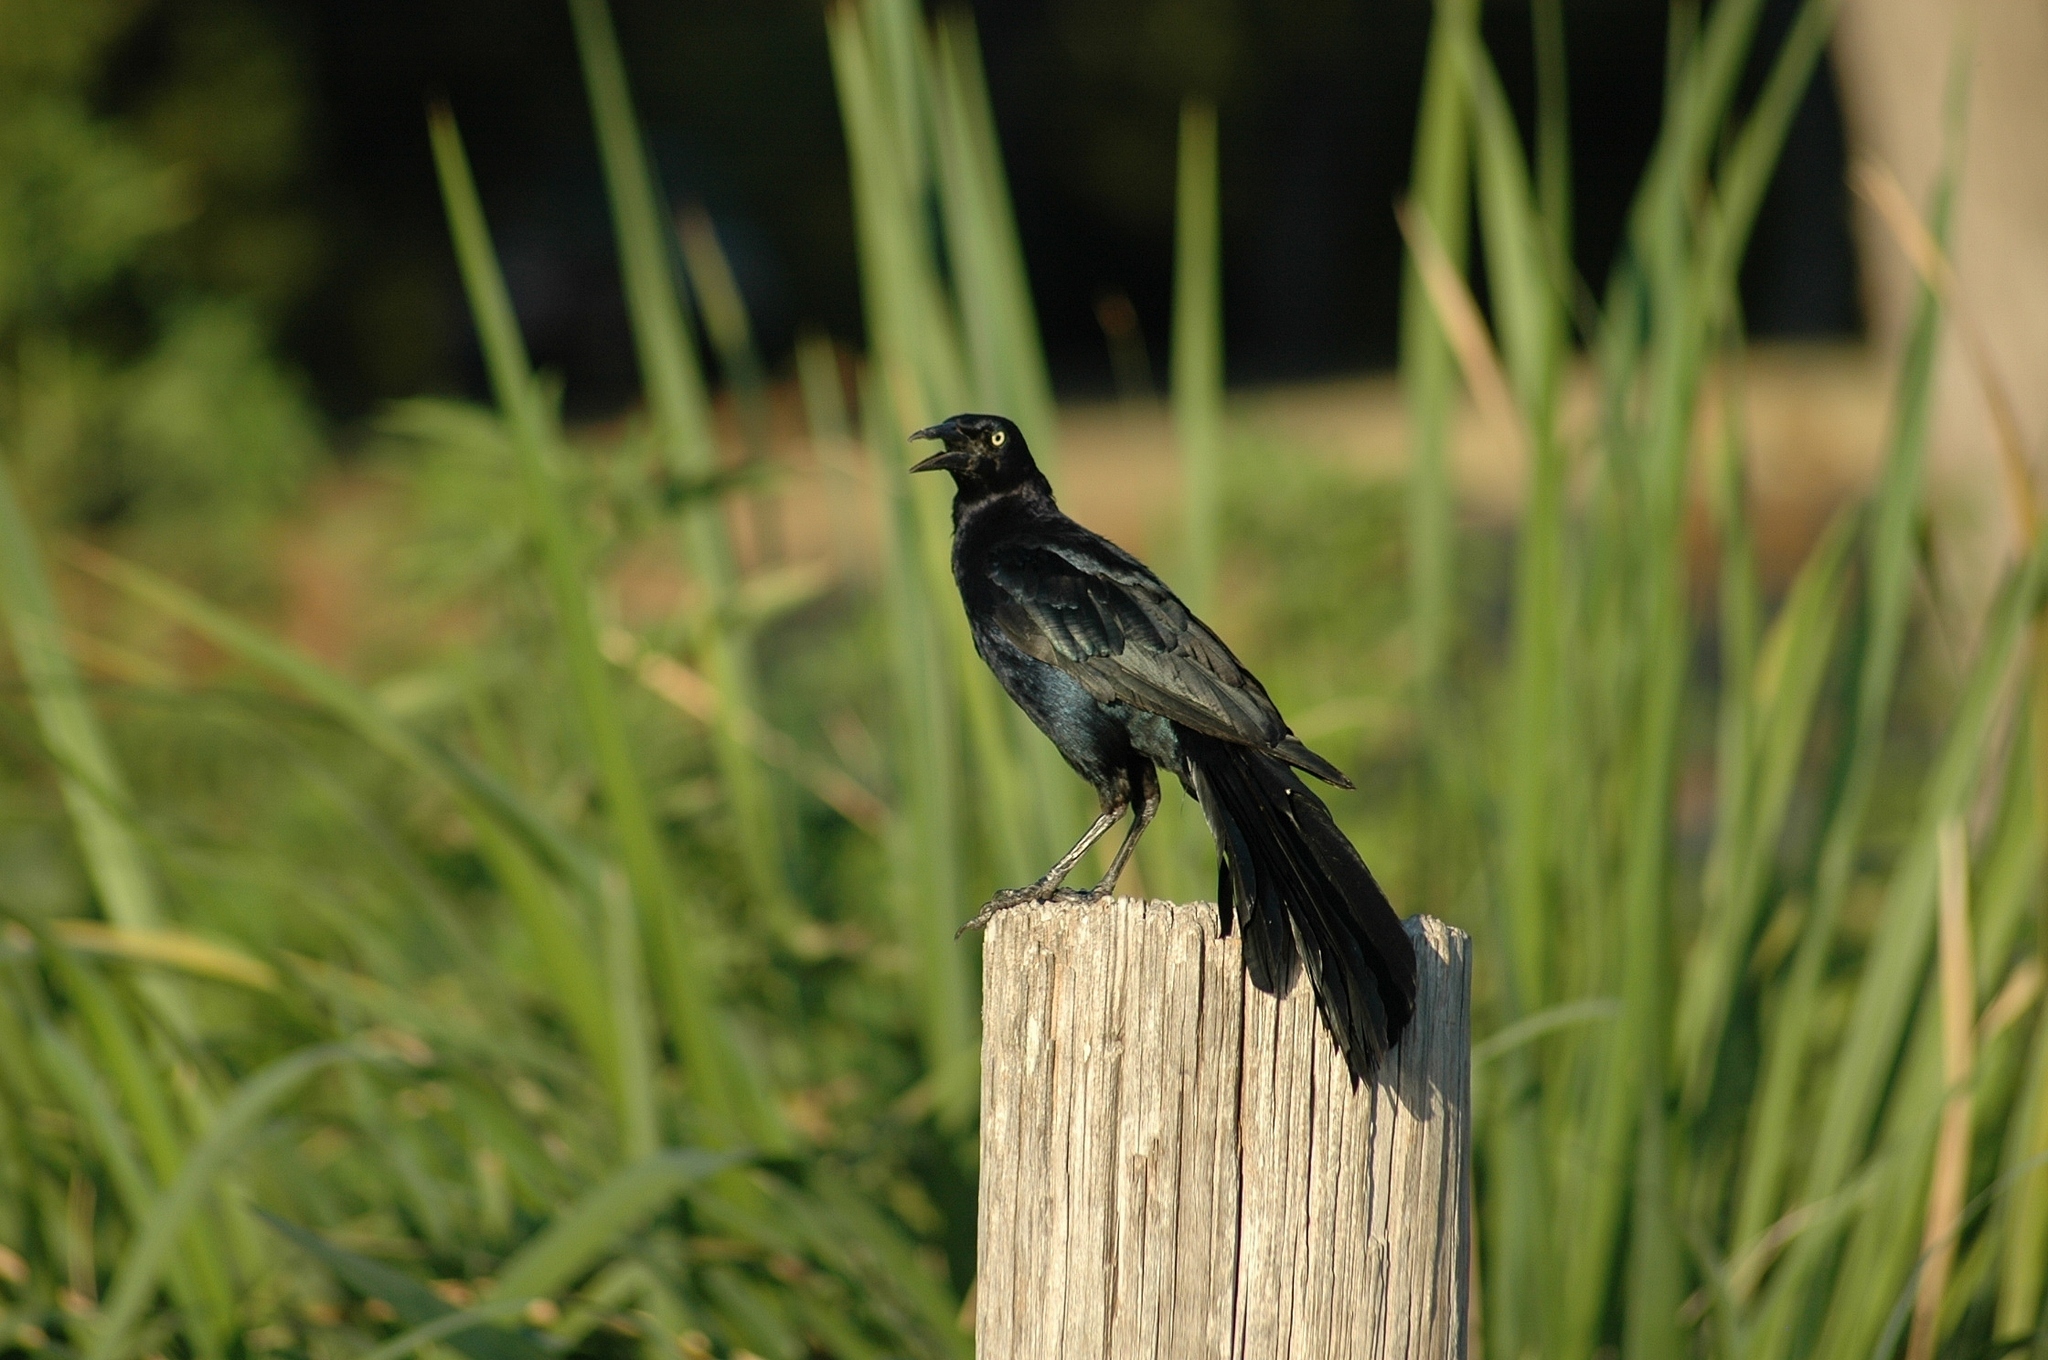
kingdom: Animalia
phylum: Chordata
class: Aves
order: Passeriformes
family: Icteridae
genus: Quiscalus
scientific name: Quiscalus mexicanus
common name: Great-tailed grackle
